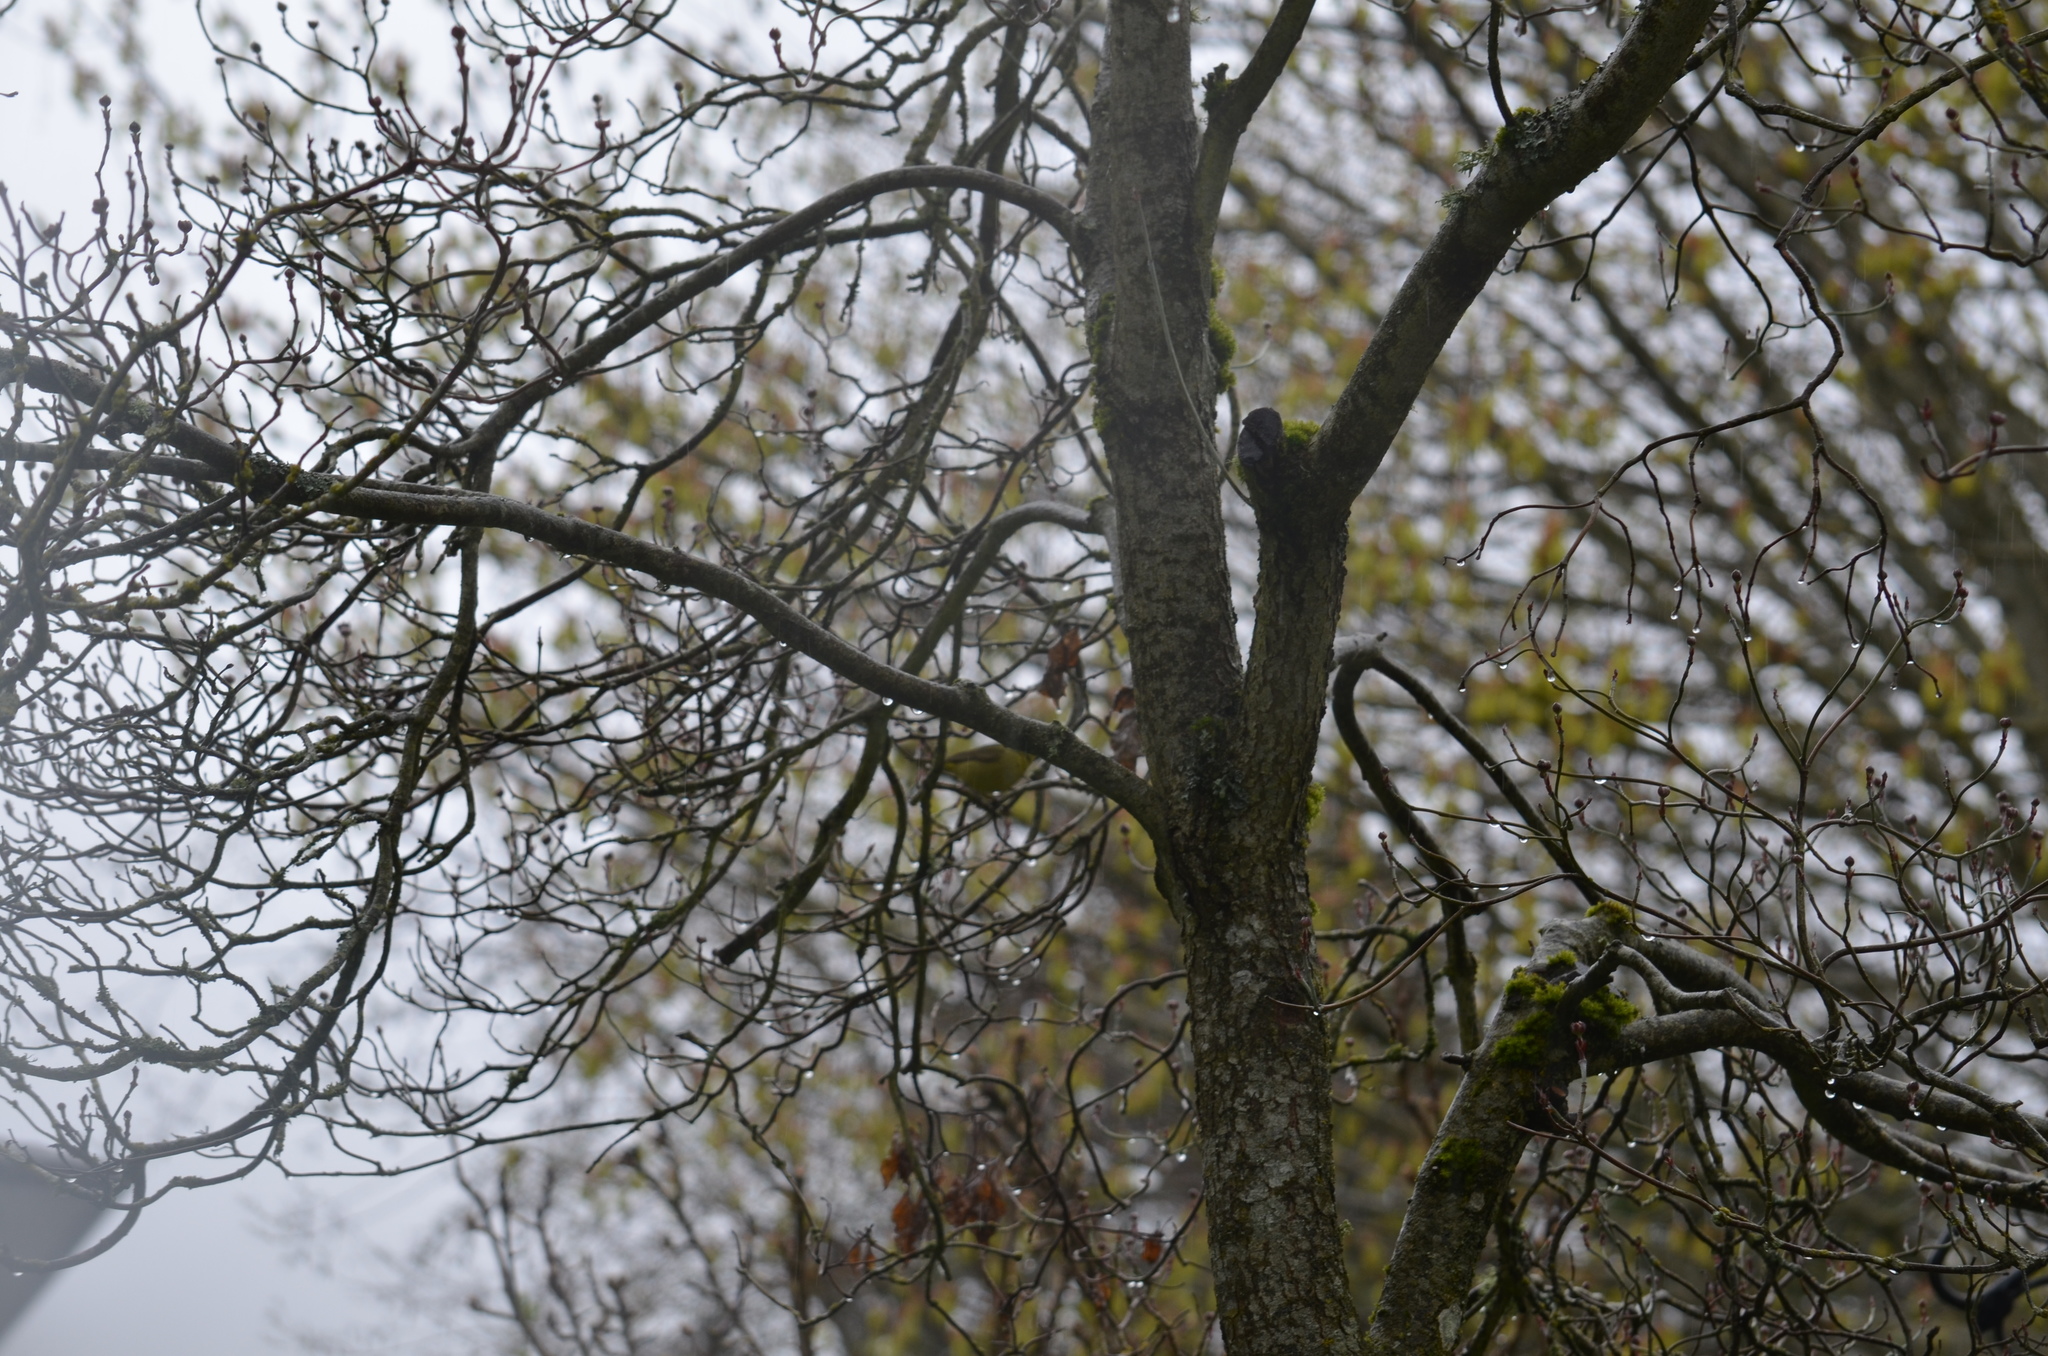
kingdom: Animalia
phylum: Chordata
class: Aves
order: Passeriformes
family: Parulidae
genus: Leiothlypis
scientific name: Leiothlypis celata
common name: Orange-crowned warbler
